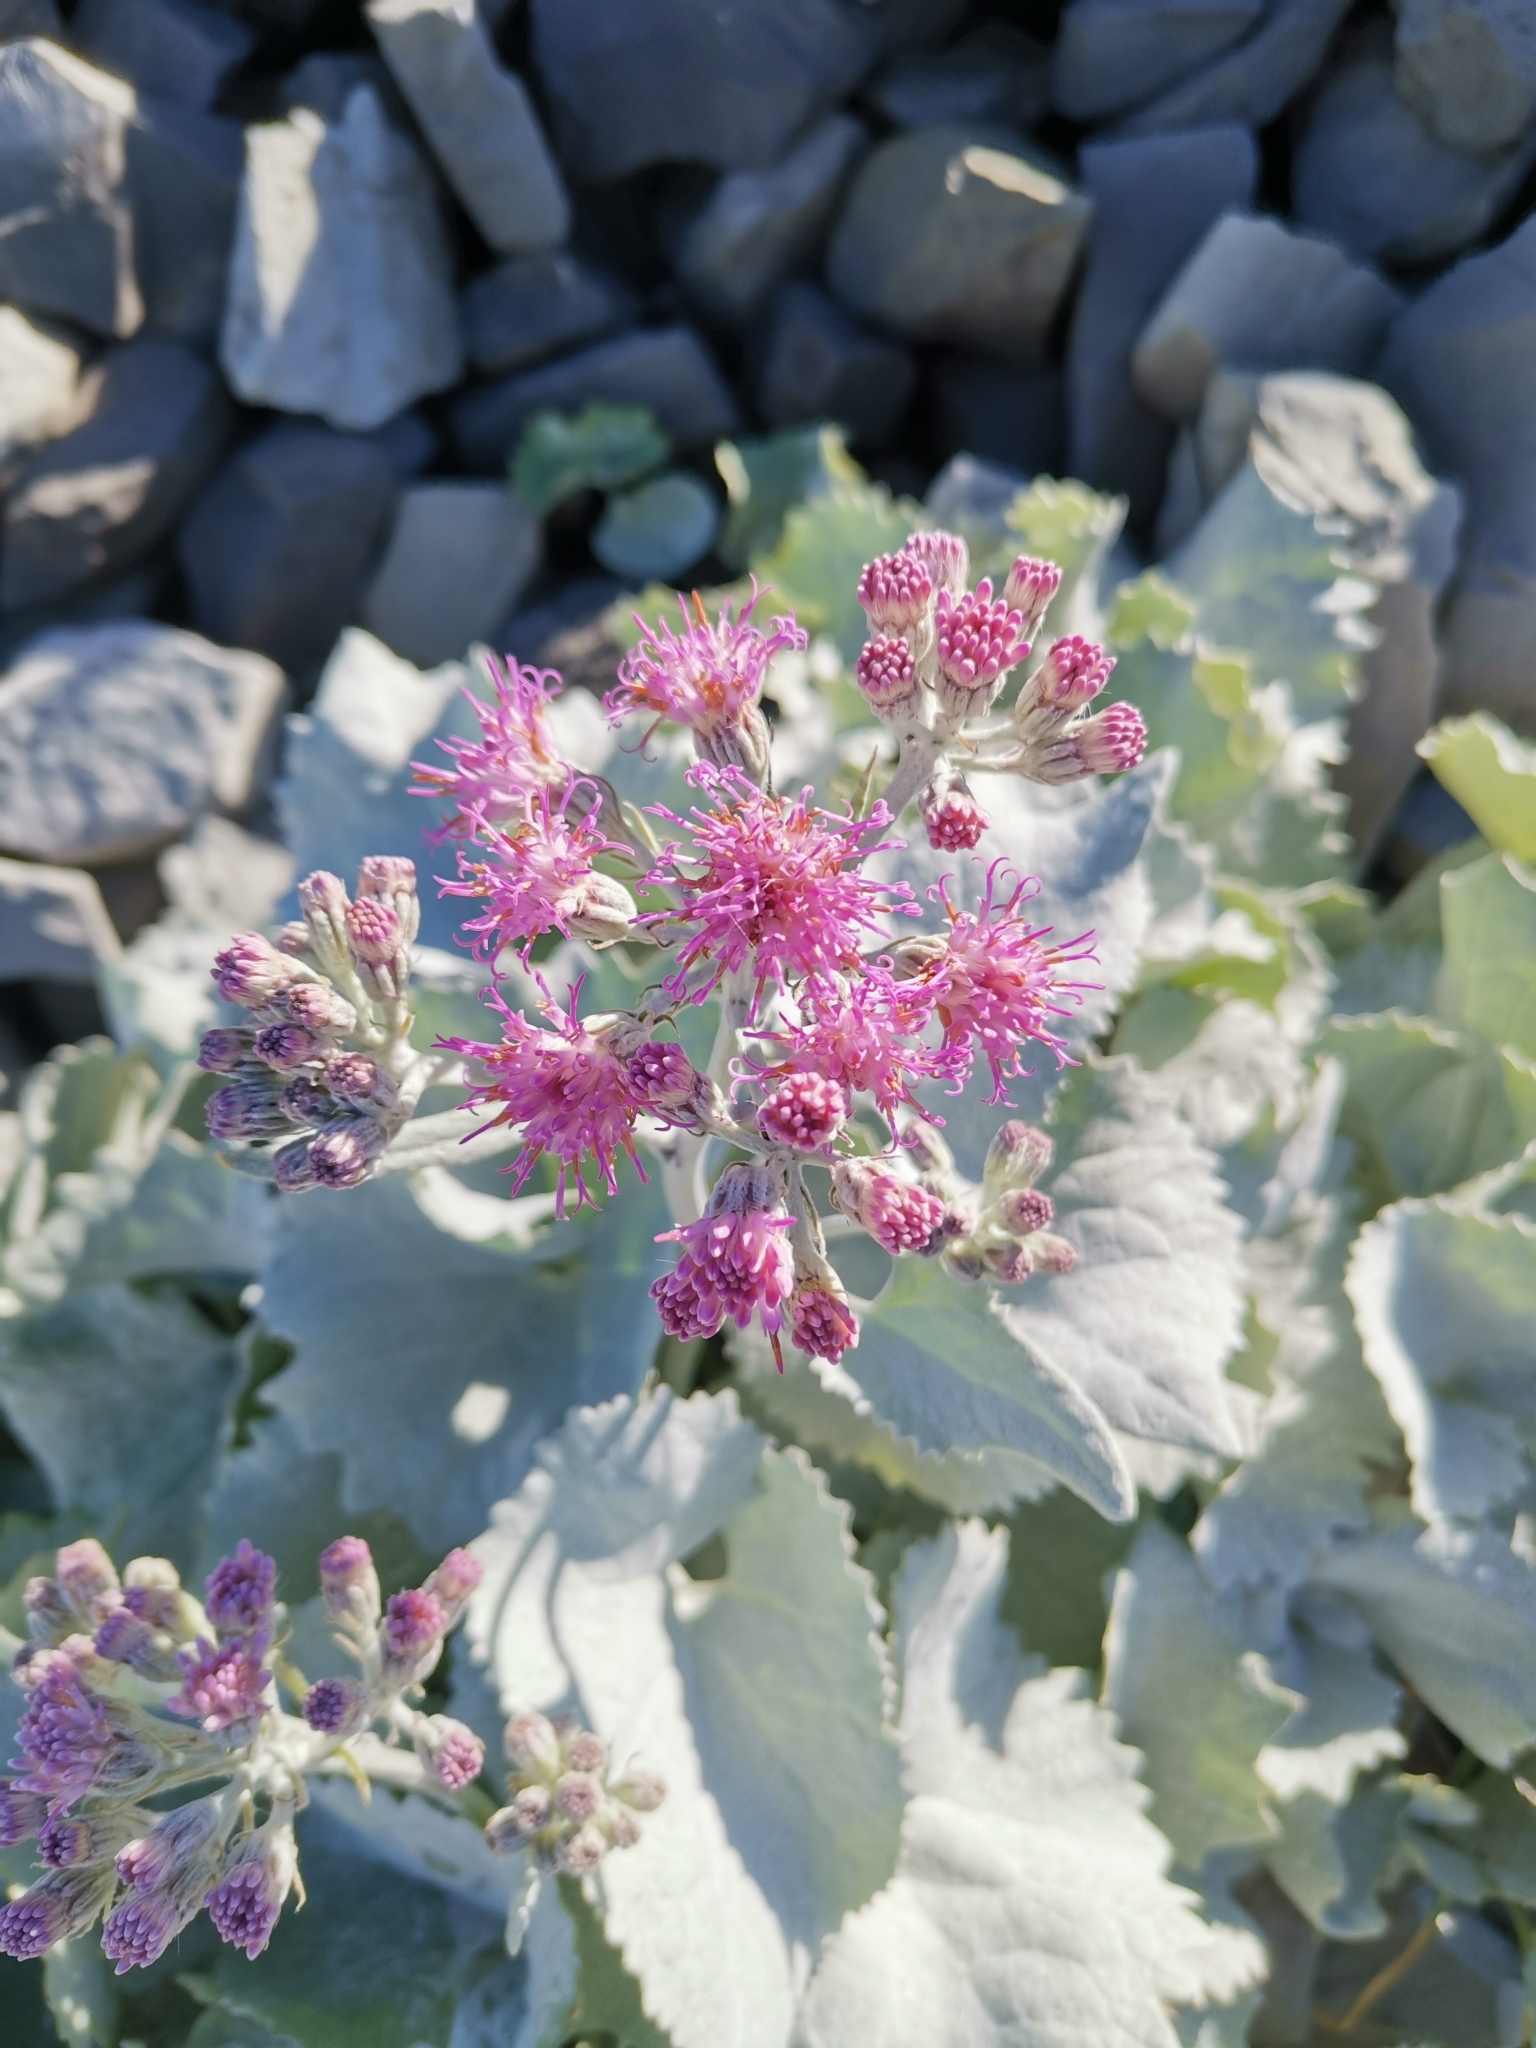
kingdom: Plantae
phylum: Tracheophyta
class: Magnoliopsida
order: Asterales
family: Asteraceae
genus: Adenostyles
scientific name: Adenostyles leucophylla
